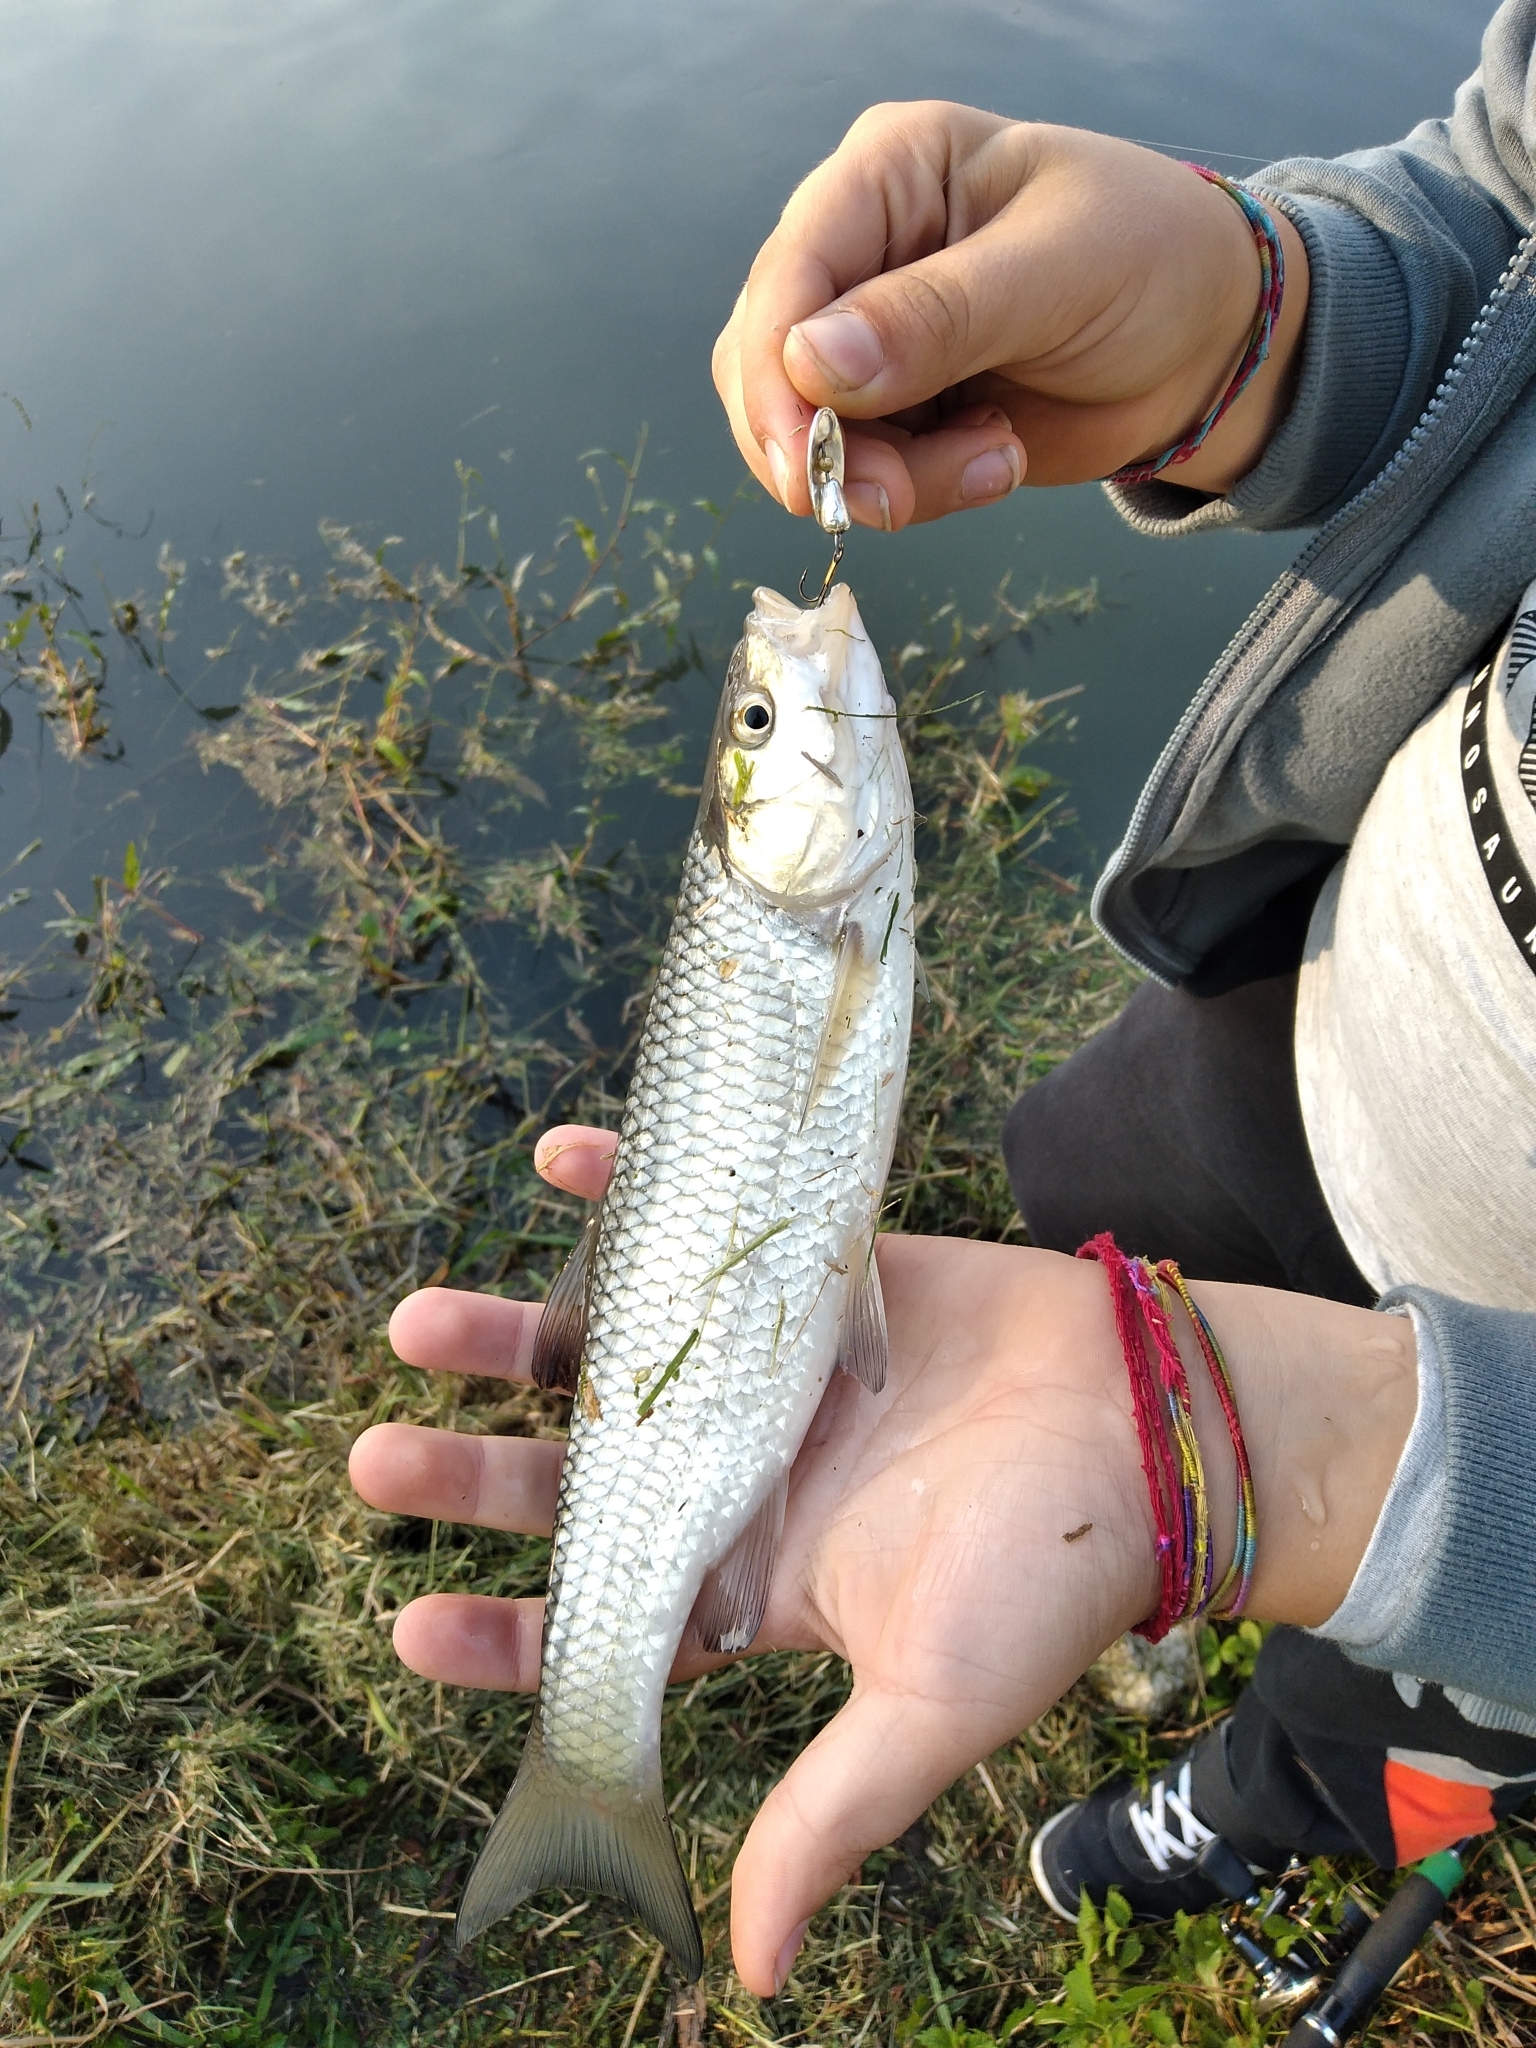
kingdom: Animalia
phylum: Chordata
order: Cypriniformes
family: Cyprinidae
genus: Squalius
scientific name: Squalius squalus
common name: Italian chub
